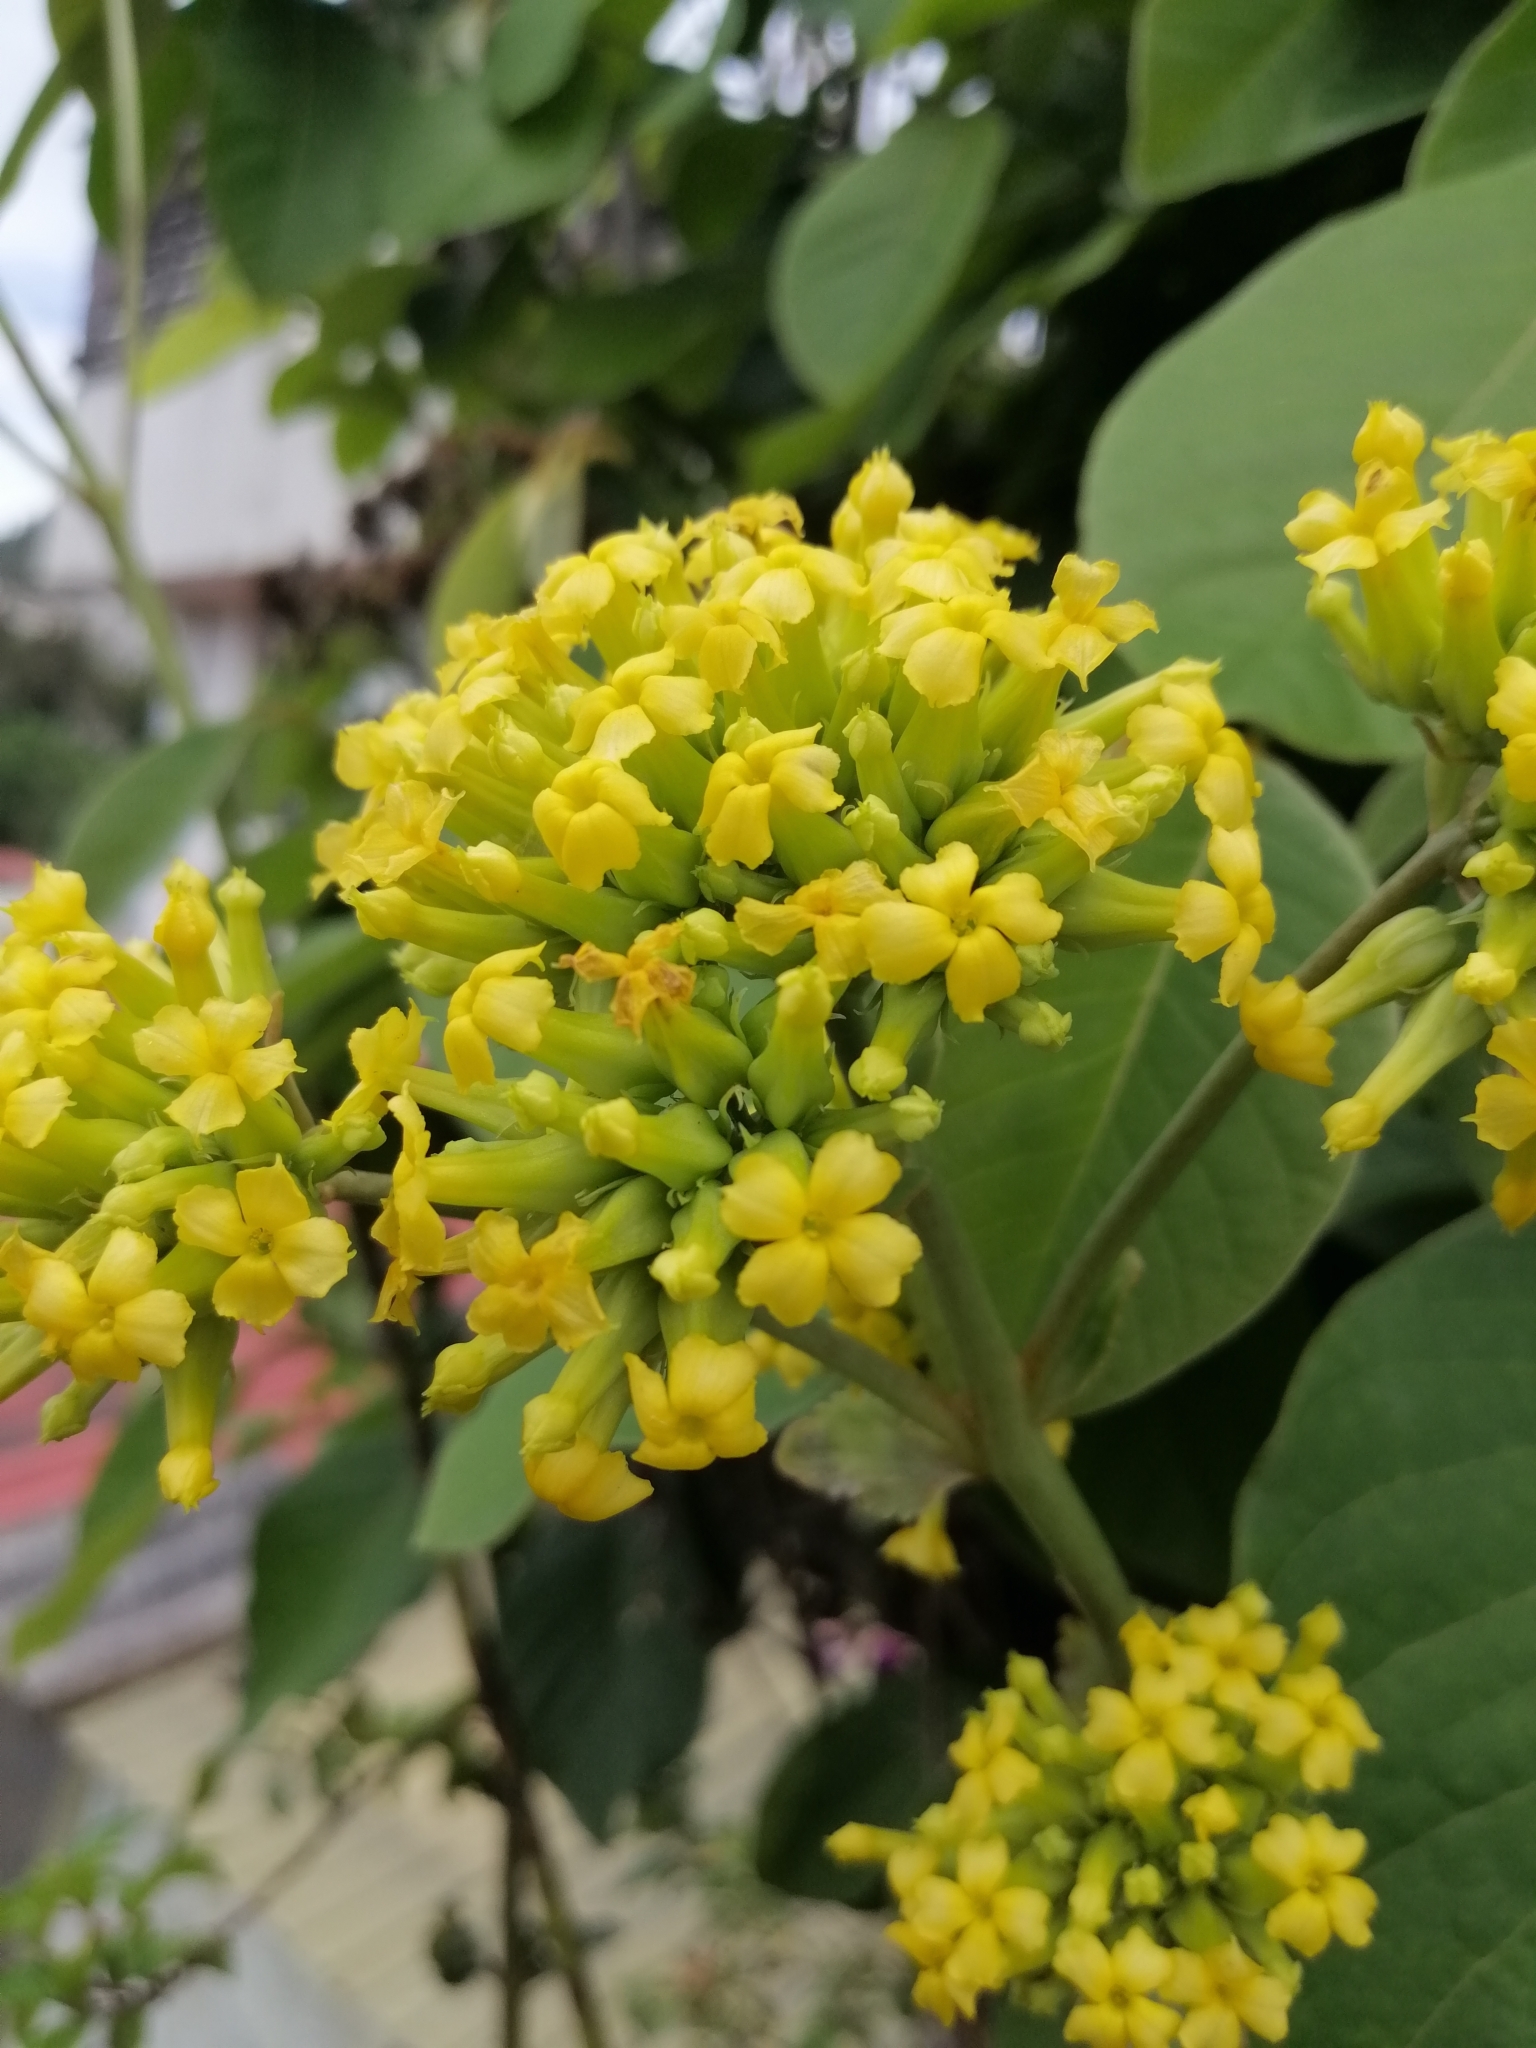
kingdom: Plantae
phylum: Tracheophyta
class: Magnoliopsida
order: Saxifragales
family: Crassulaceae
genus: Kalanchoe
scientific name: Kalanchoe densiflora
